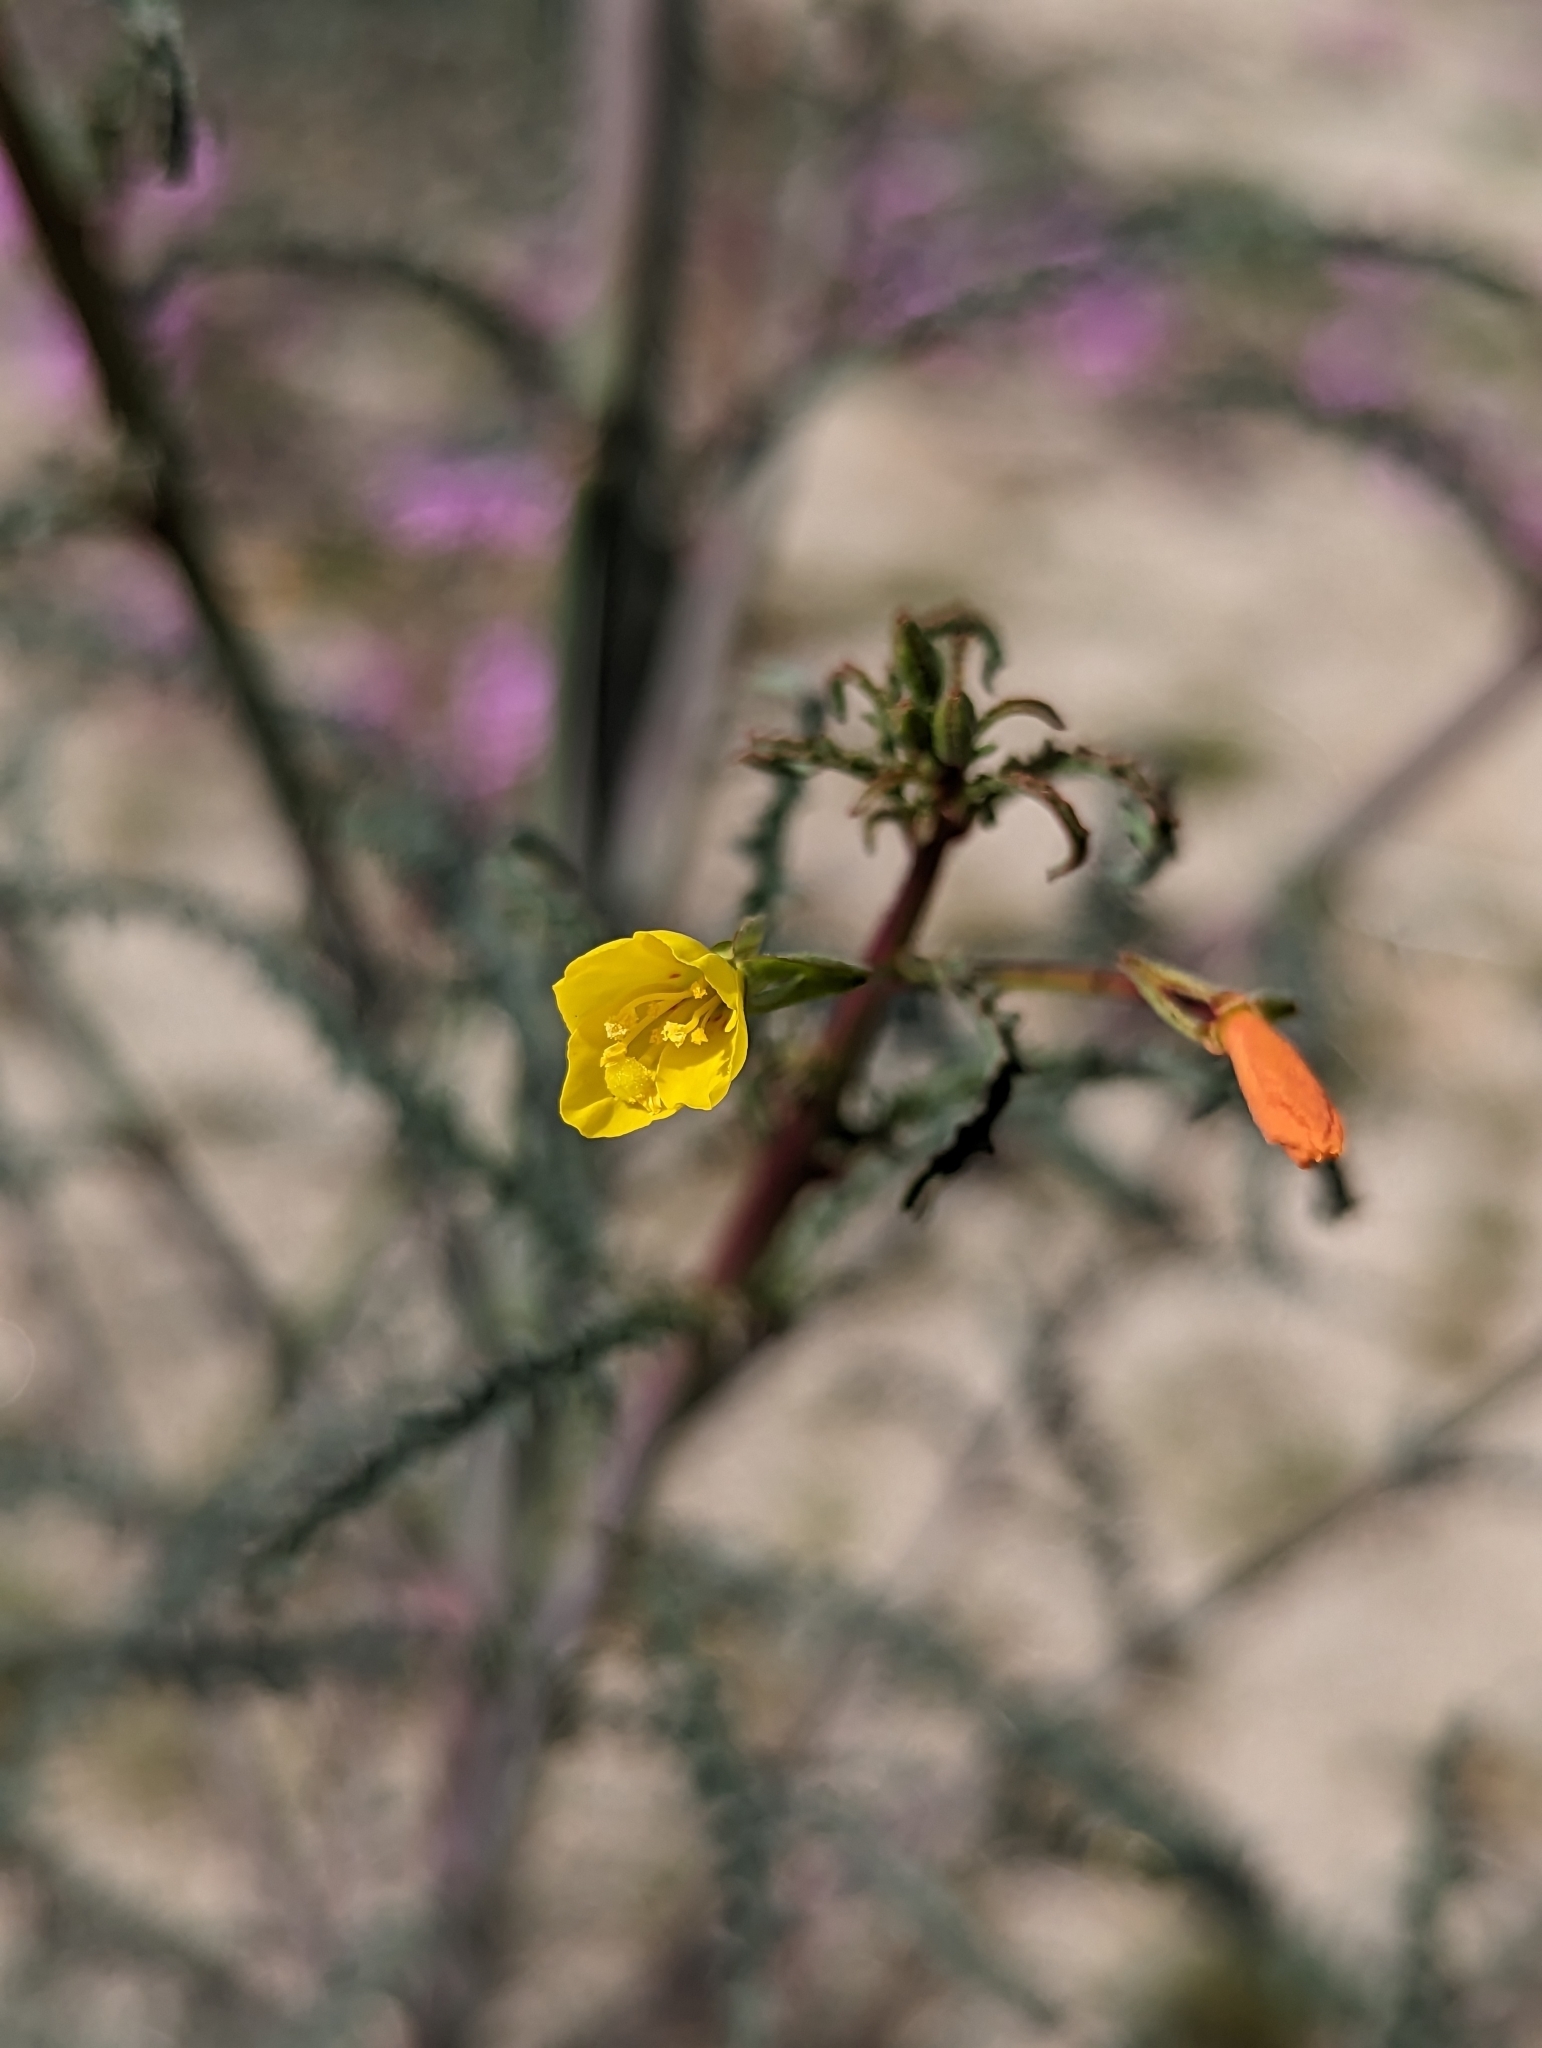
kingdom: Plantae
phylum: Tracheophyta
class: Magnoliopsida
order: Myrtales
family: Onagraceae
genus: Eulobus
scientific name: Eulobus californicus
